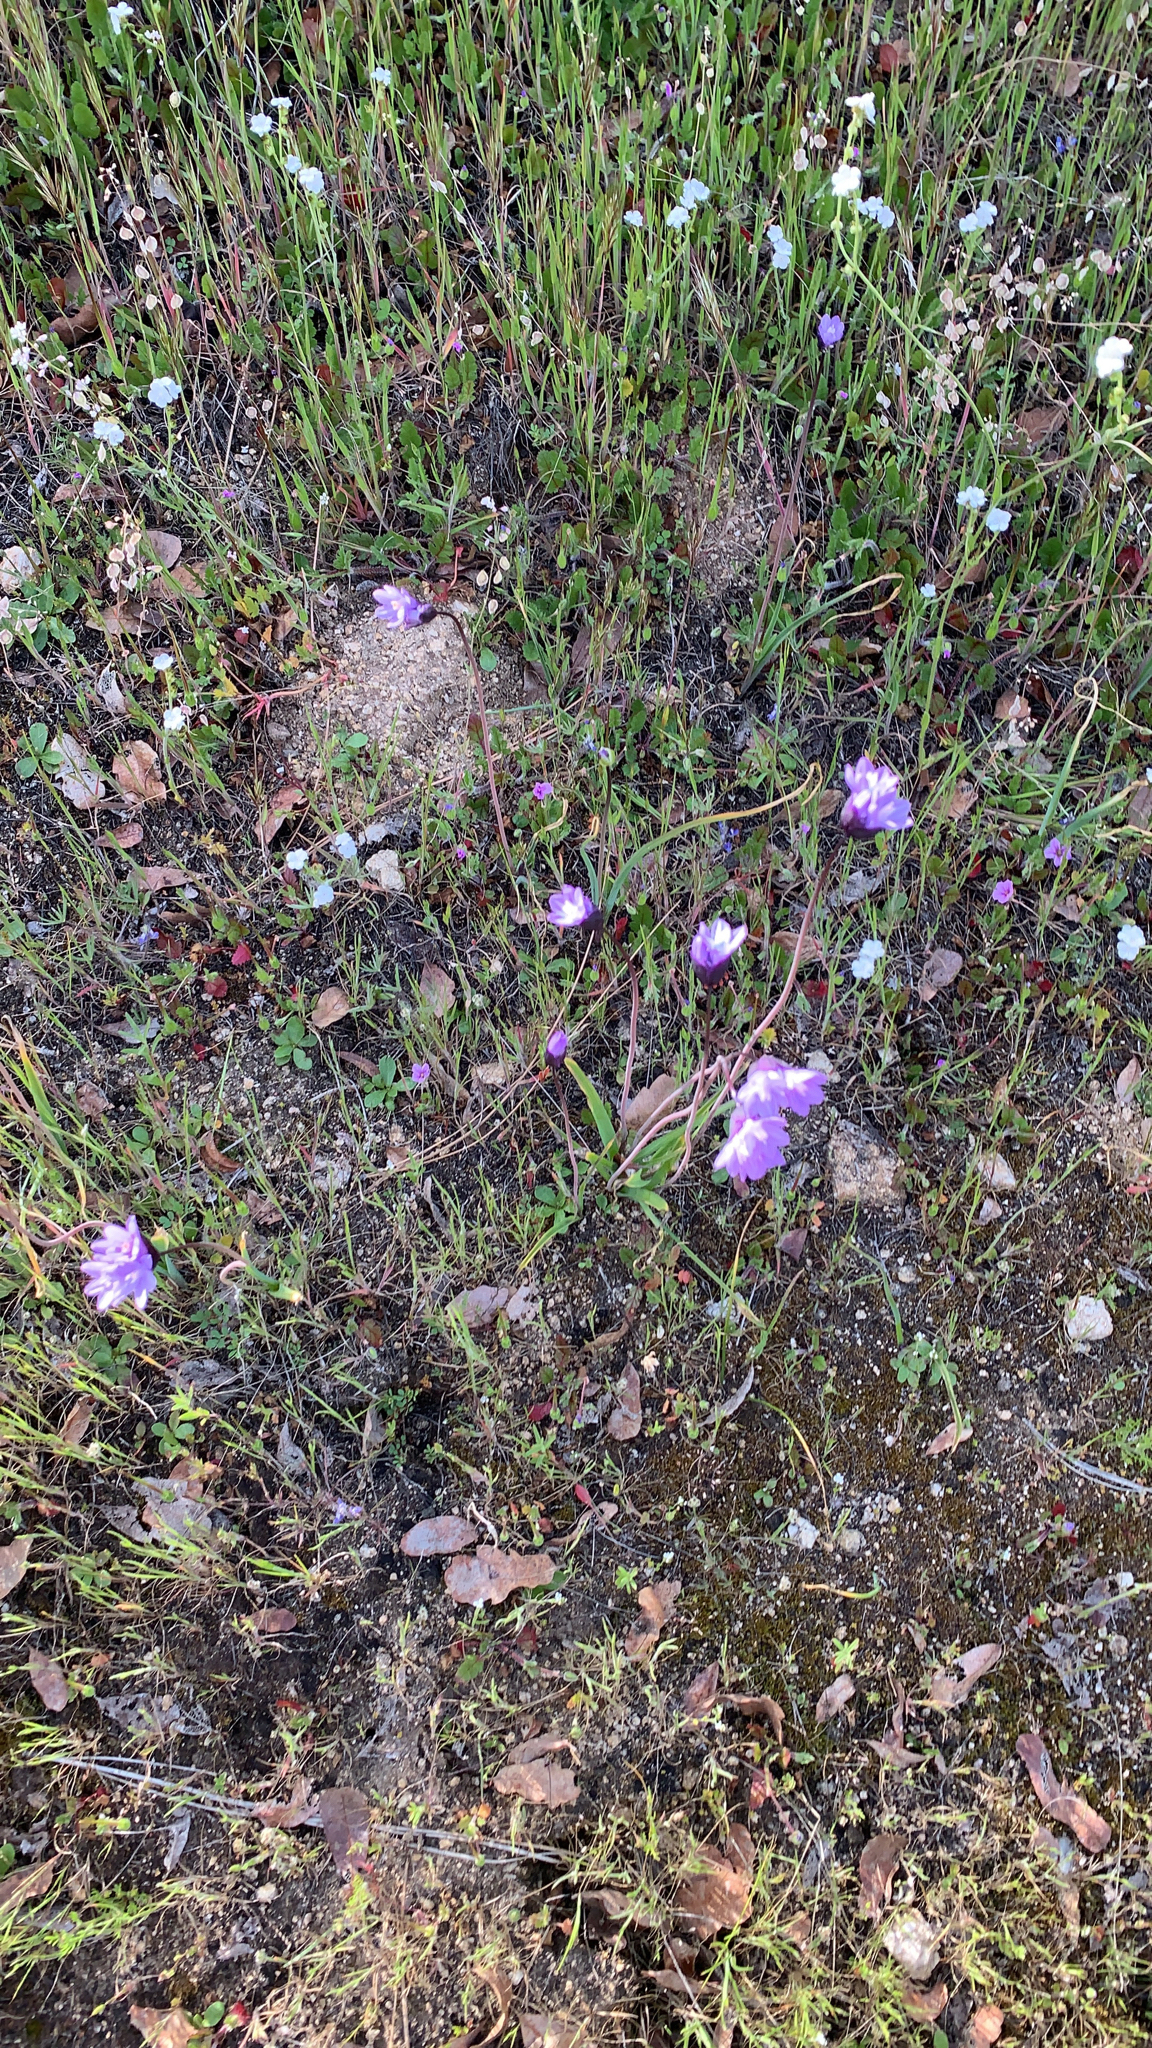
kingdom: Plantae
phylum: Tracheophyta
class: Liliopsida
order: Asparagales
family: Asparagaceae
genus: Dipterostemon
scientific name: Dipterostemon capitatus
